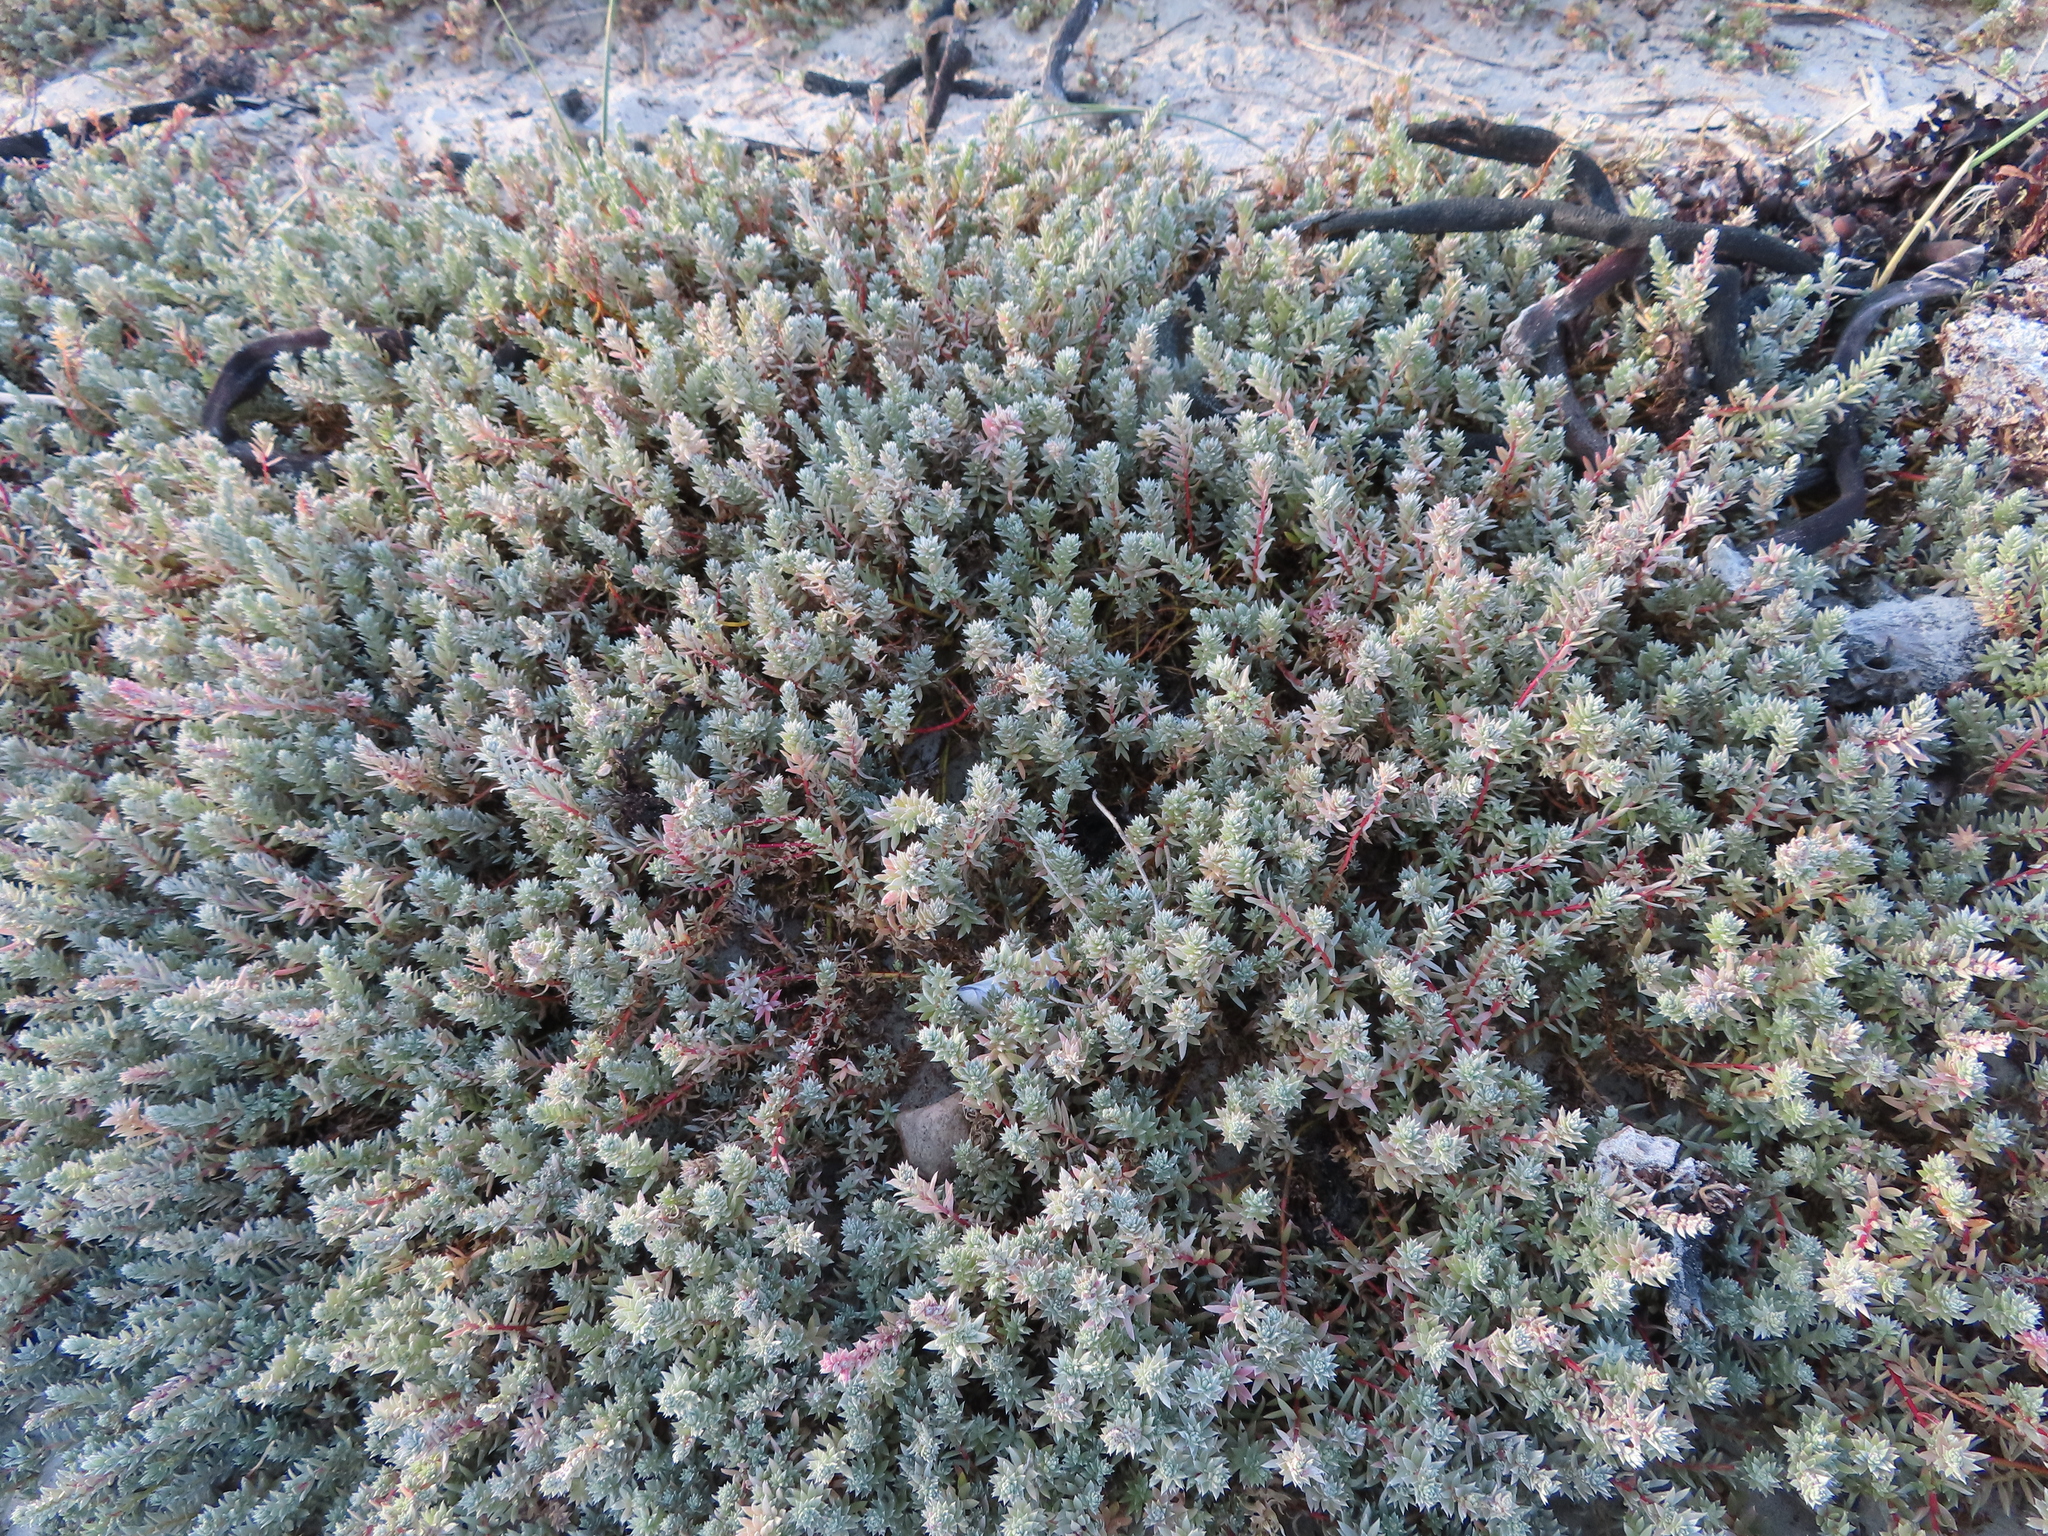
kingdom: Plantae
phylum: Tracheophyta
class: Magnoliopsida
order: Caryophyllales
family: Amaranthaceae
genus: Chenolea
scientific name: Chenolea diffusa
